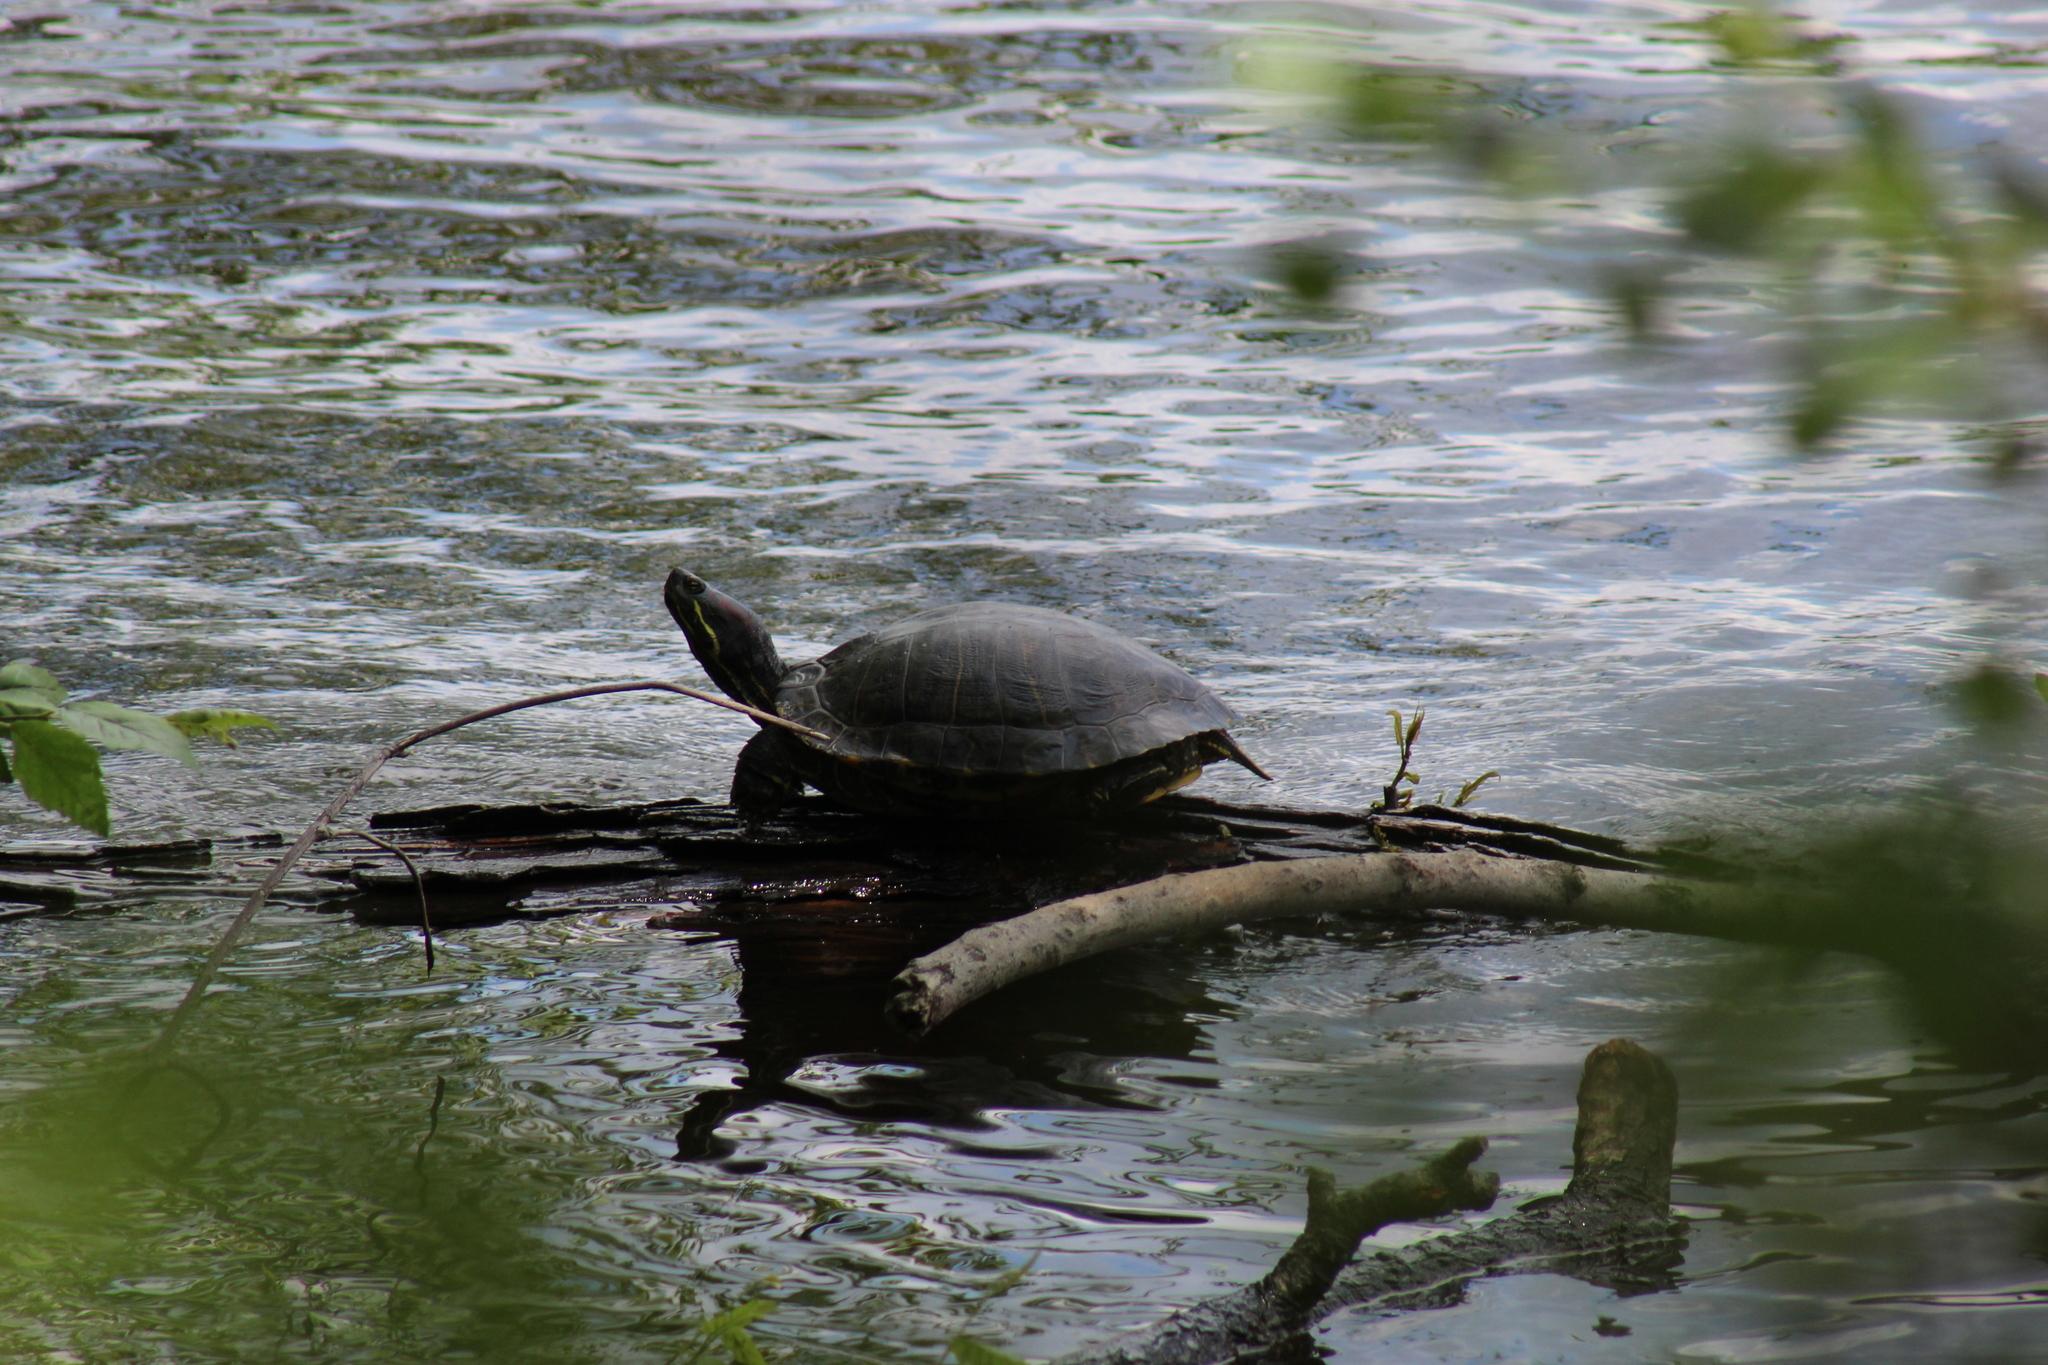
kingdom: Animalia
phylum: Chordata
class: Testudines
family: Emydidae
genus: Trachemys
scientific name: Trachemys scripta
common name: Slider
